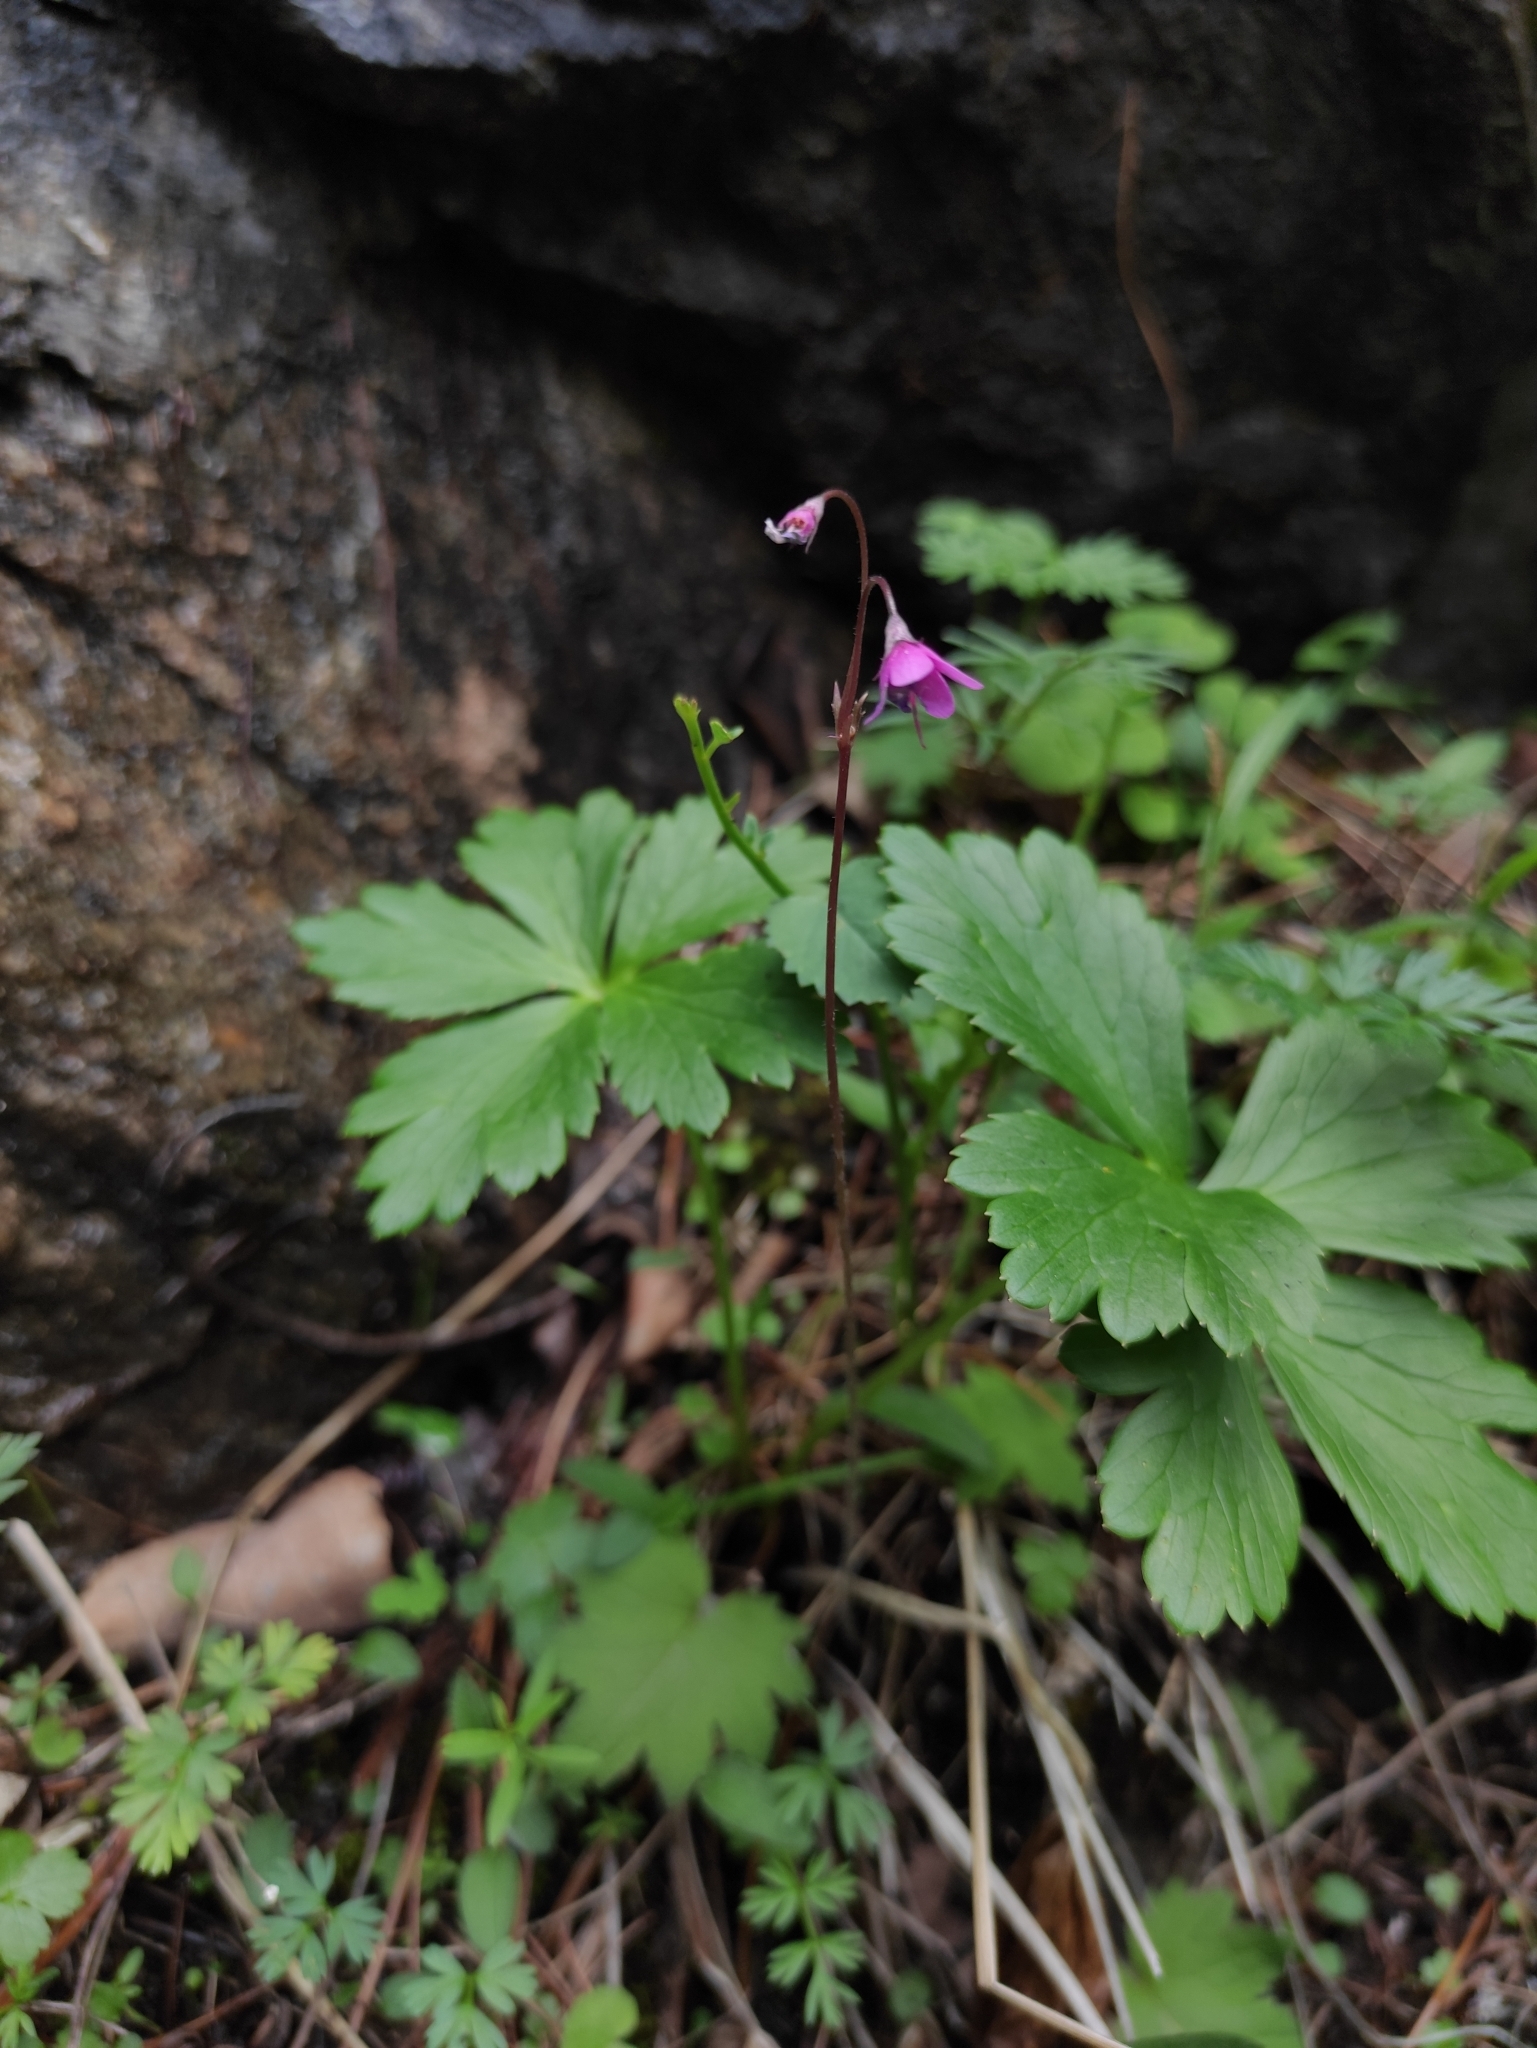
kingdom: Plantae
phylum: Tracheophyta
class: Magnoliopsida
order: Ericales
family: Primulaceae
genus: Primula
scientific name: Primula matthioli
